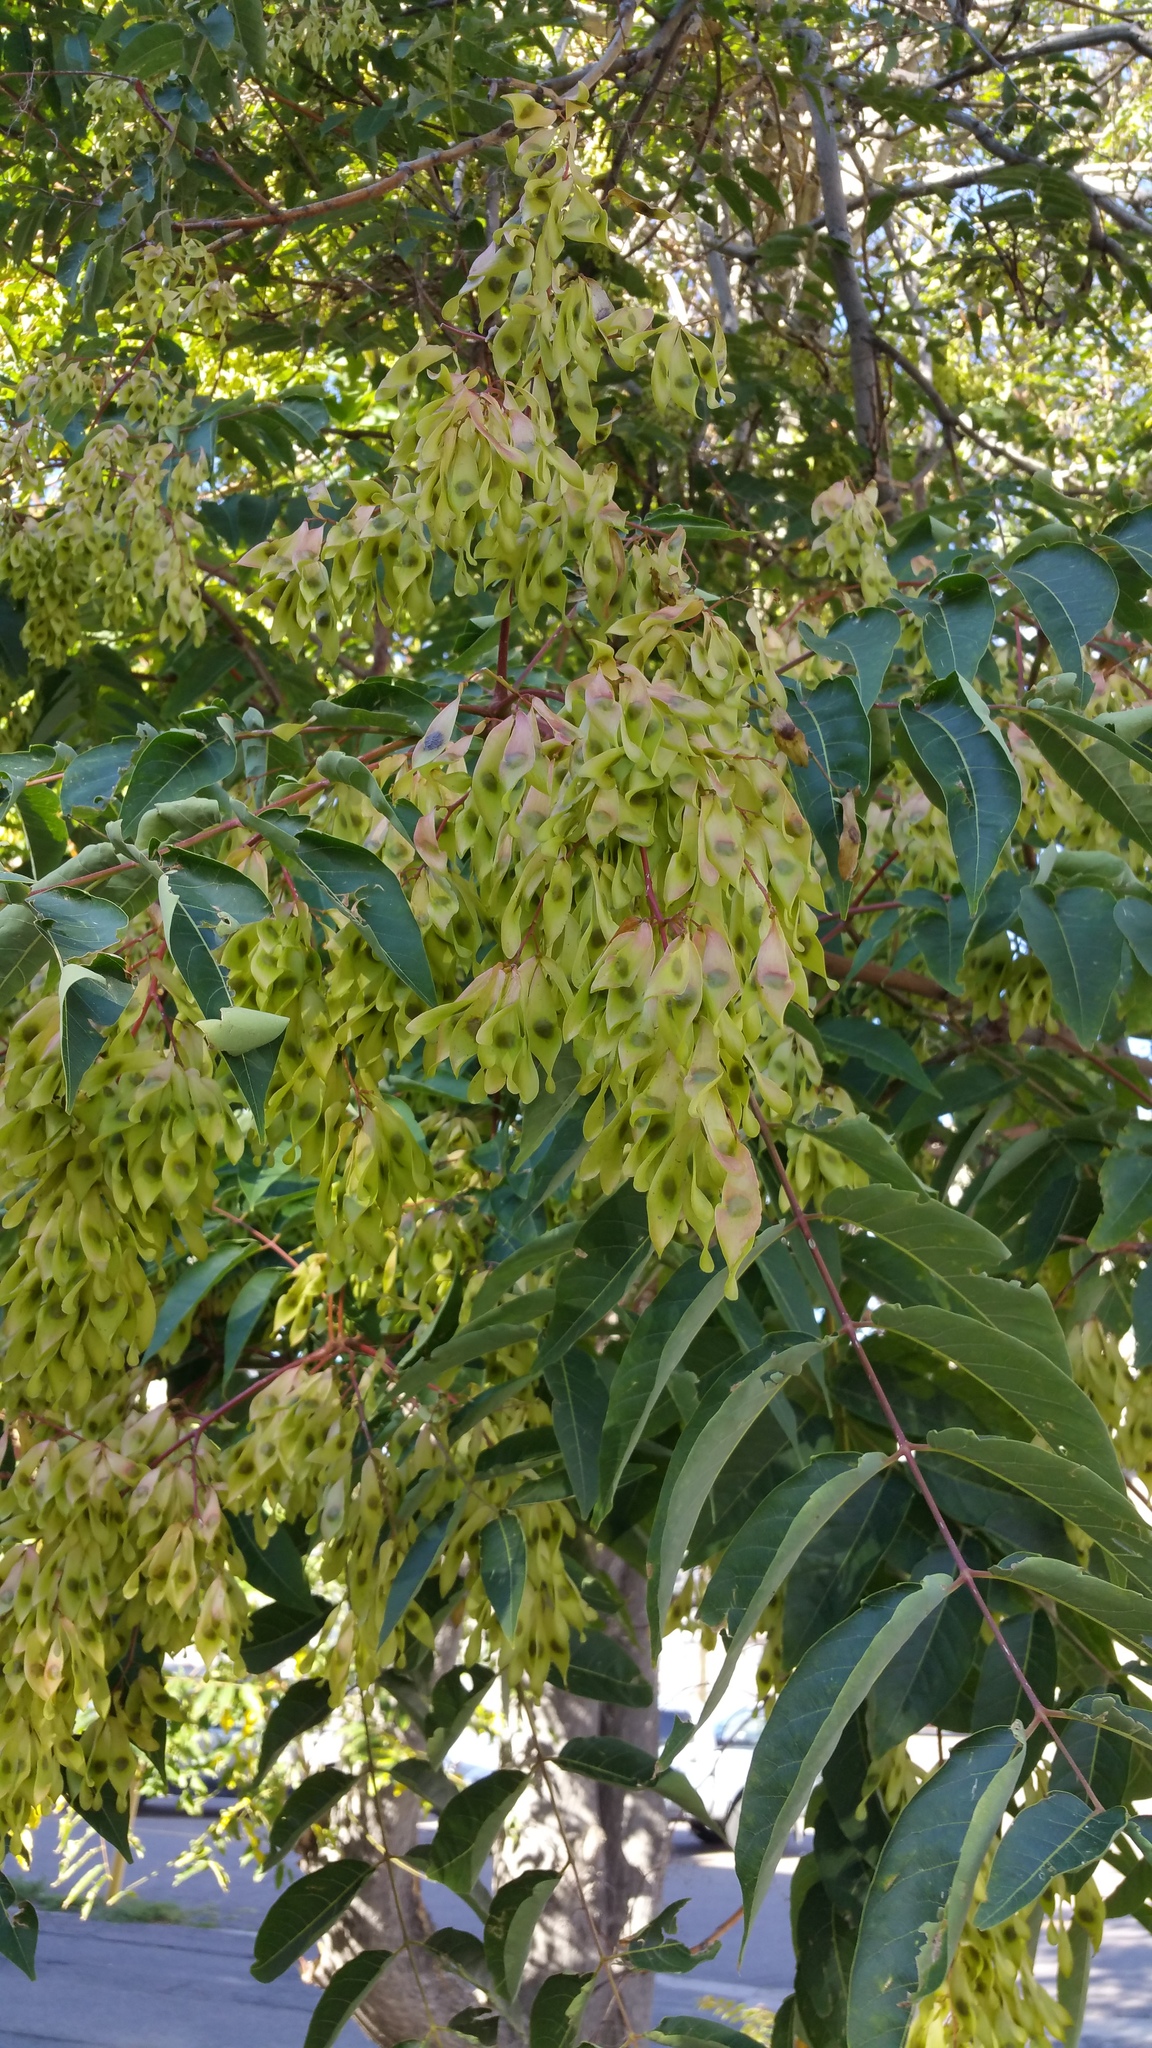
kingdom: Plantae
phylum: Tracheophyta
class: Magnoliopsida
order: Sapindales
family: Simaroubaceae
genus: Ailanthus
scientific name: Ailanthus altissima
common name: Tree-of-heaven
